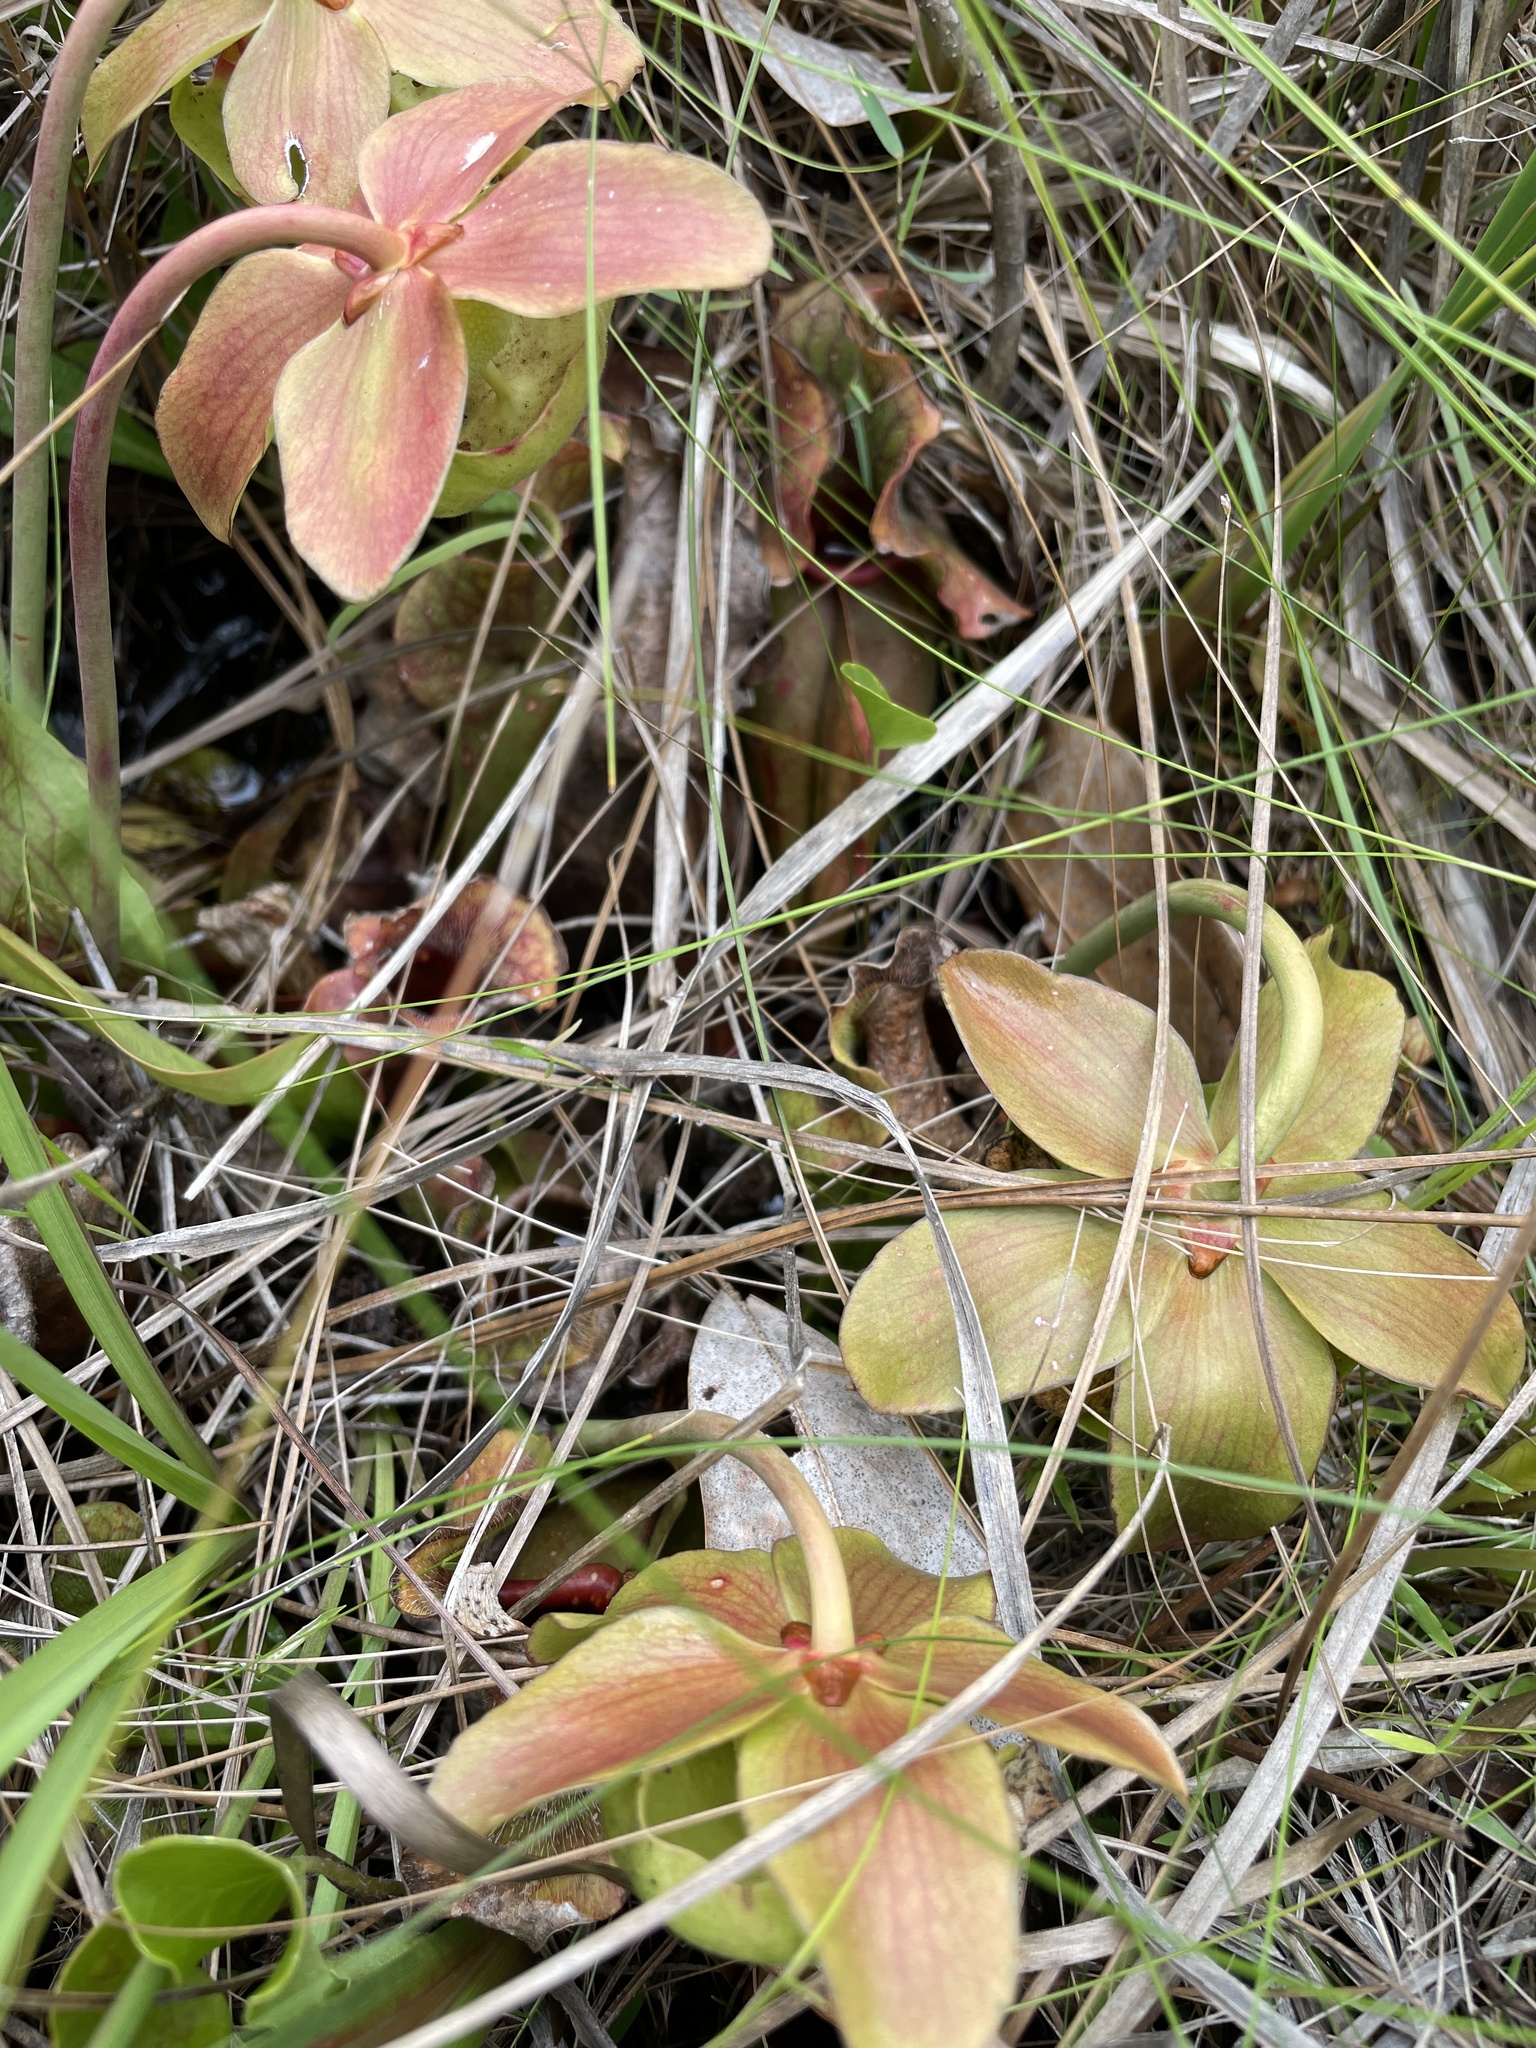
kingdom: Plantae
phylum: Tracheophyta
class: Magnoliopsida
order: Ericales
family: Sarraceniaceae
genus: Sarracenia
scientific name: Sarracenia rosea
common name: Pink pitcherplant
